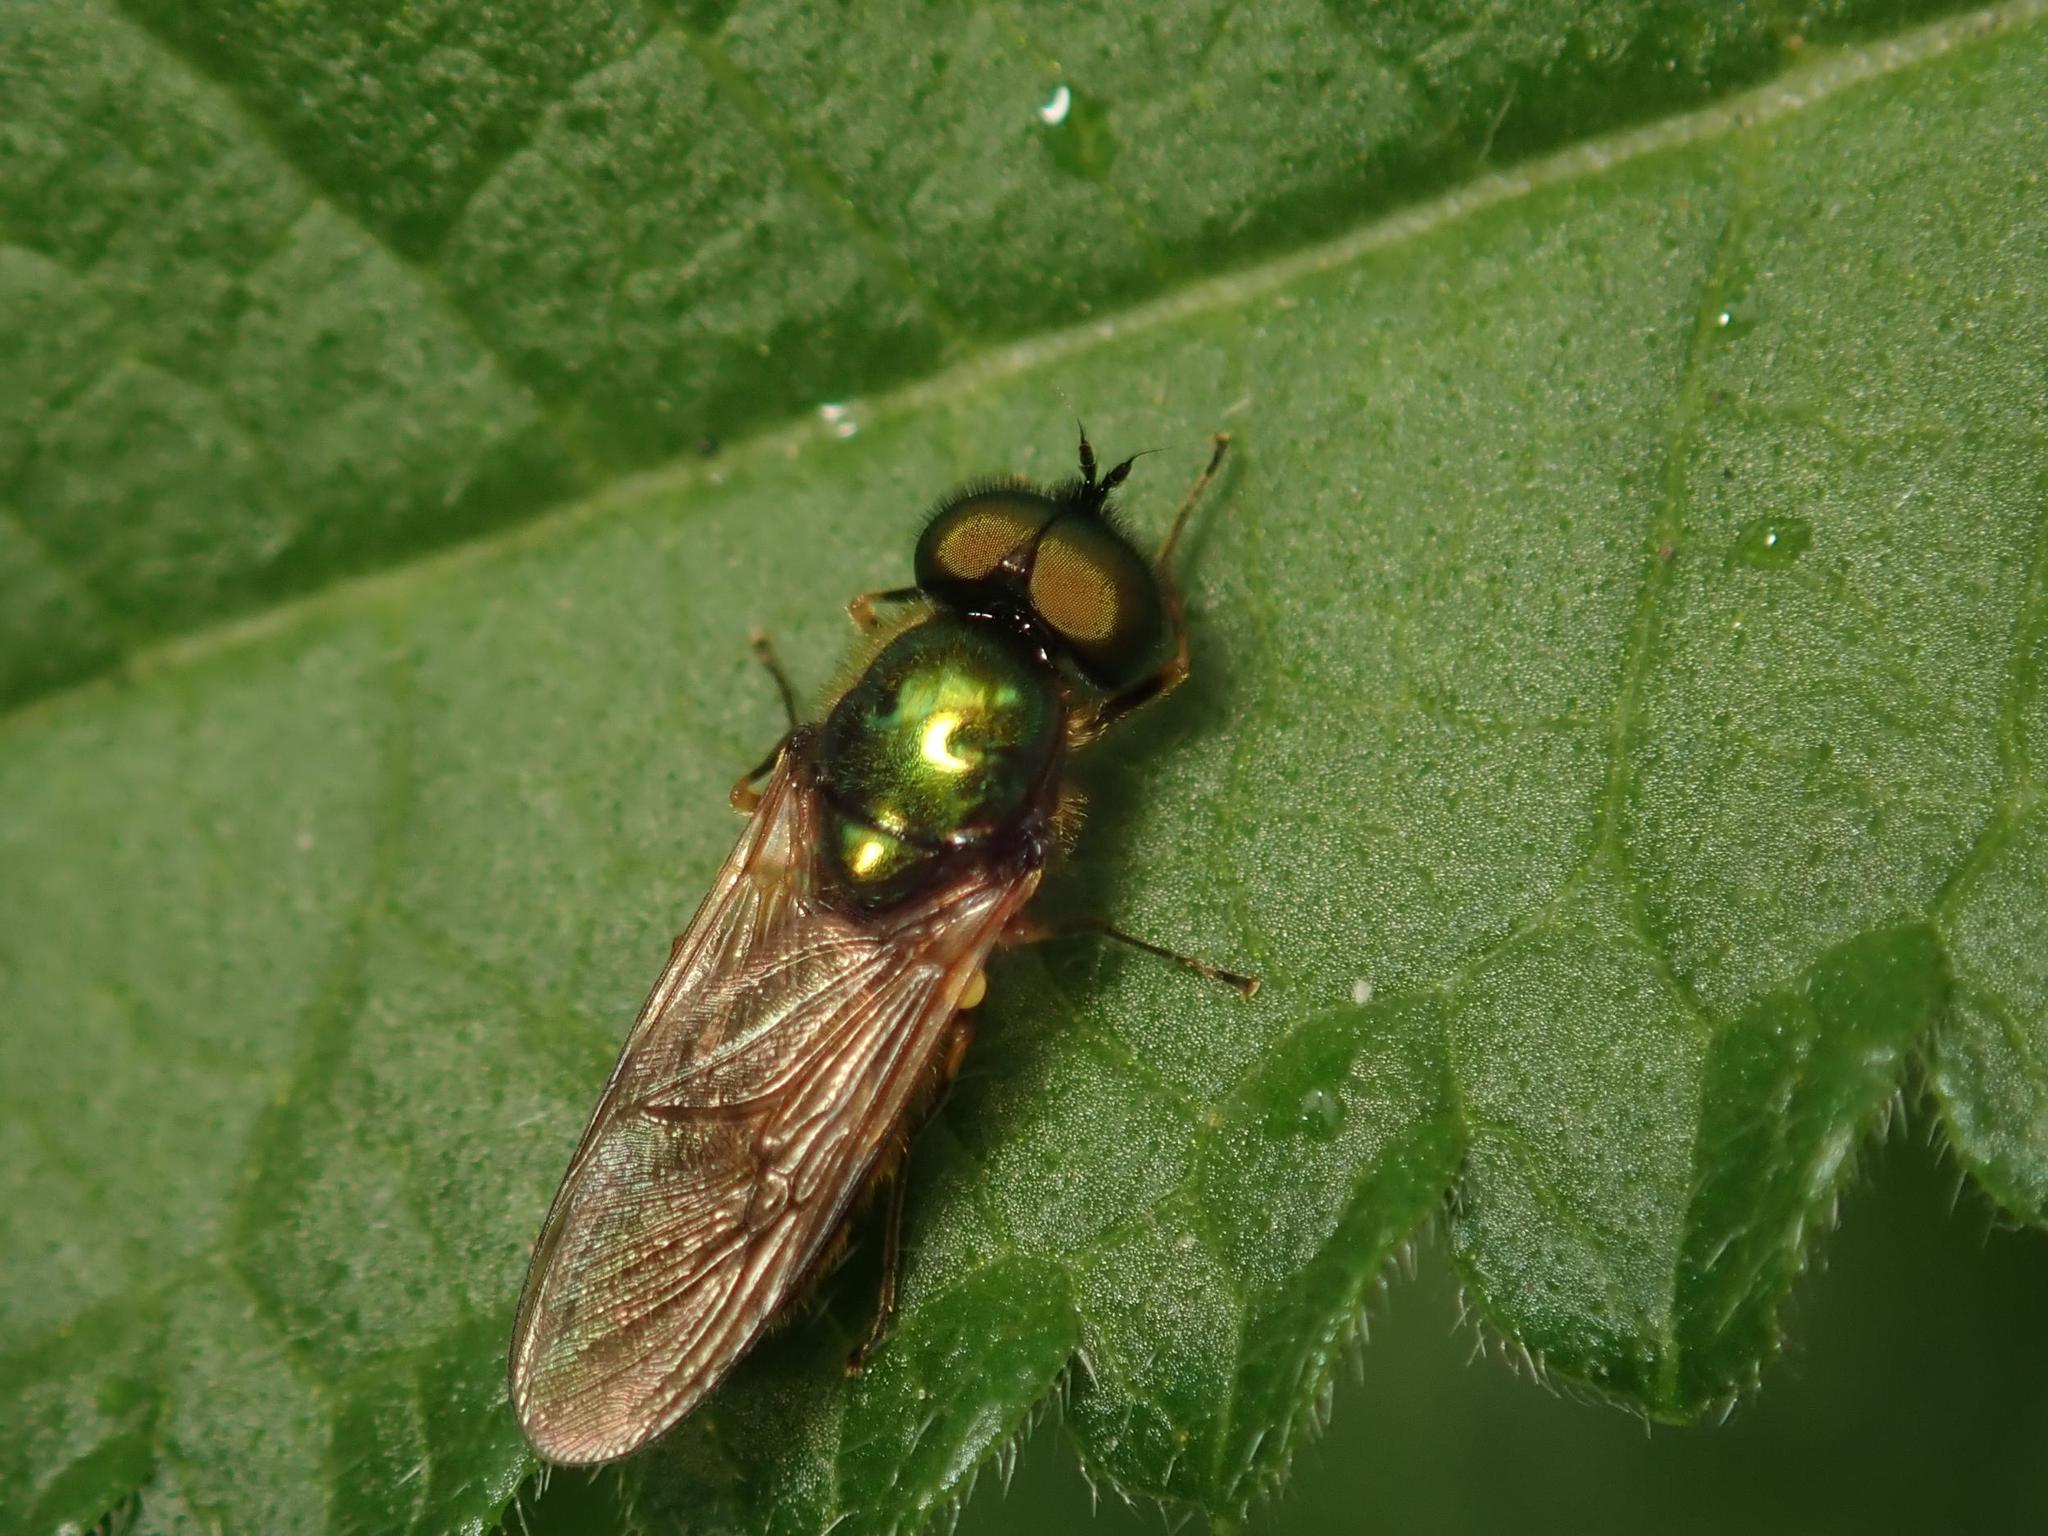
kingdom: Animalia
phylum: Arthropoda
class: Insecta
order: Diptera
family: Stratiomyidae
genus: Chloromyia
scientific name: Chloromyia formosa
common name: Soldier fly
